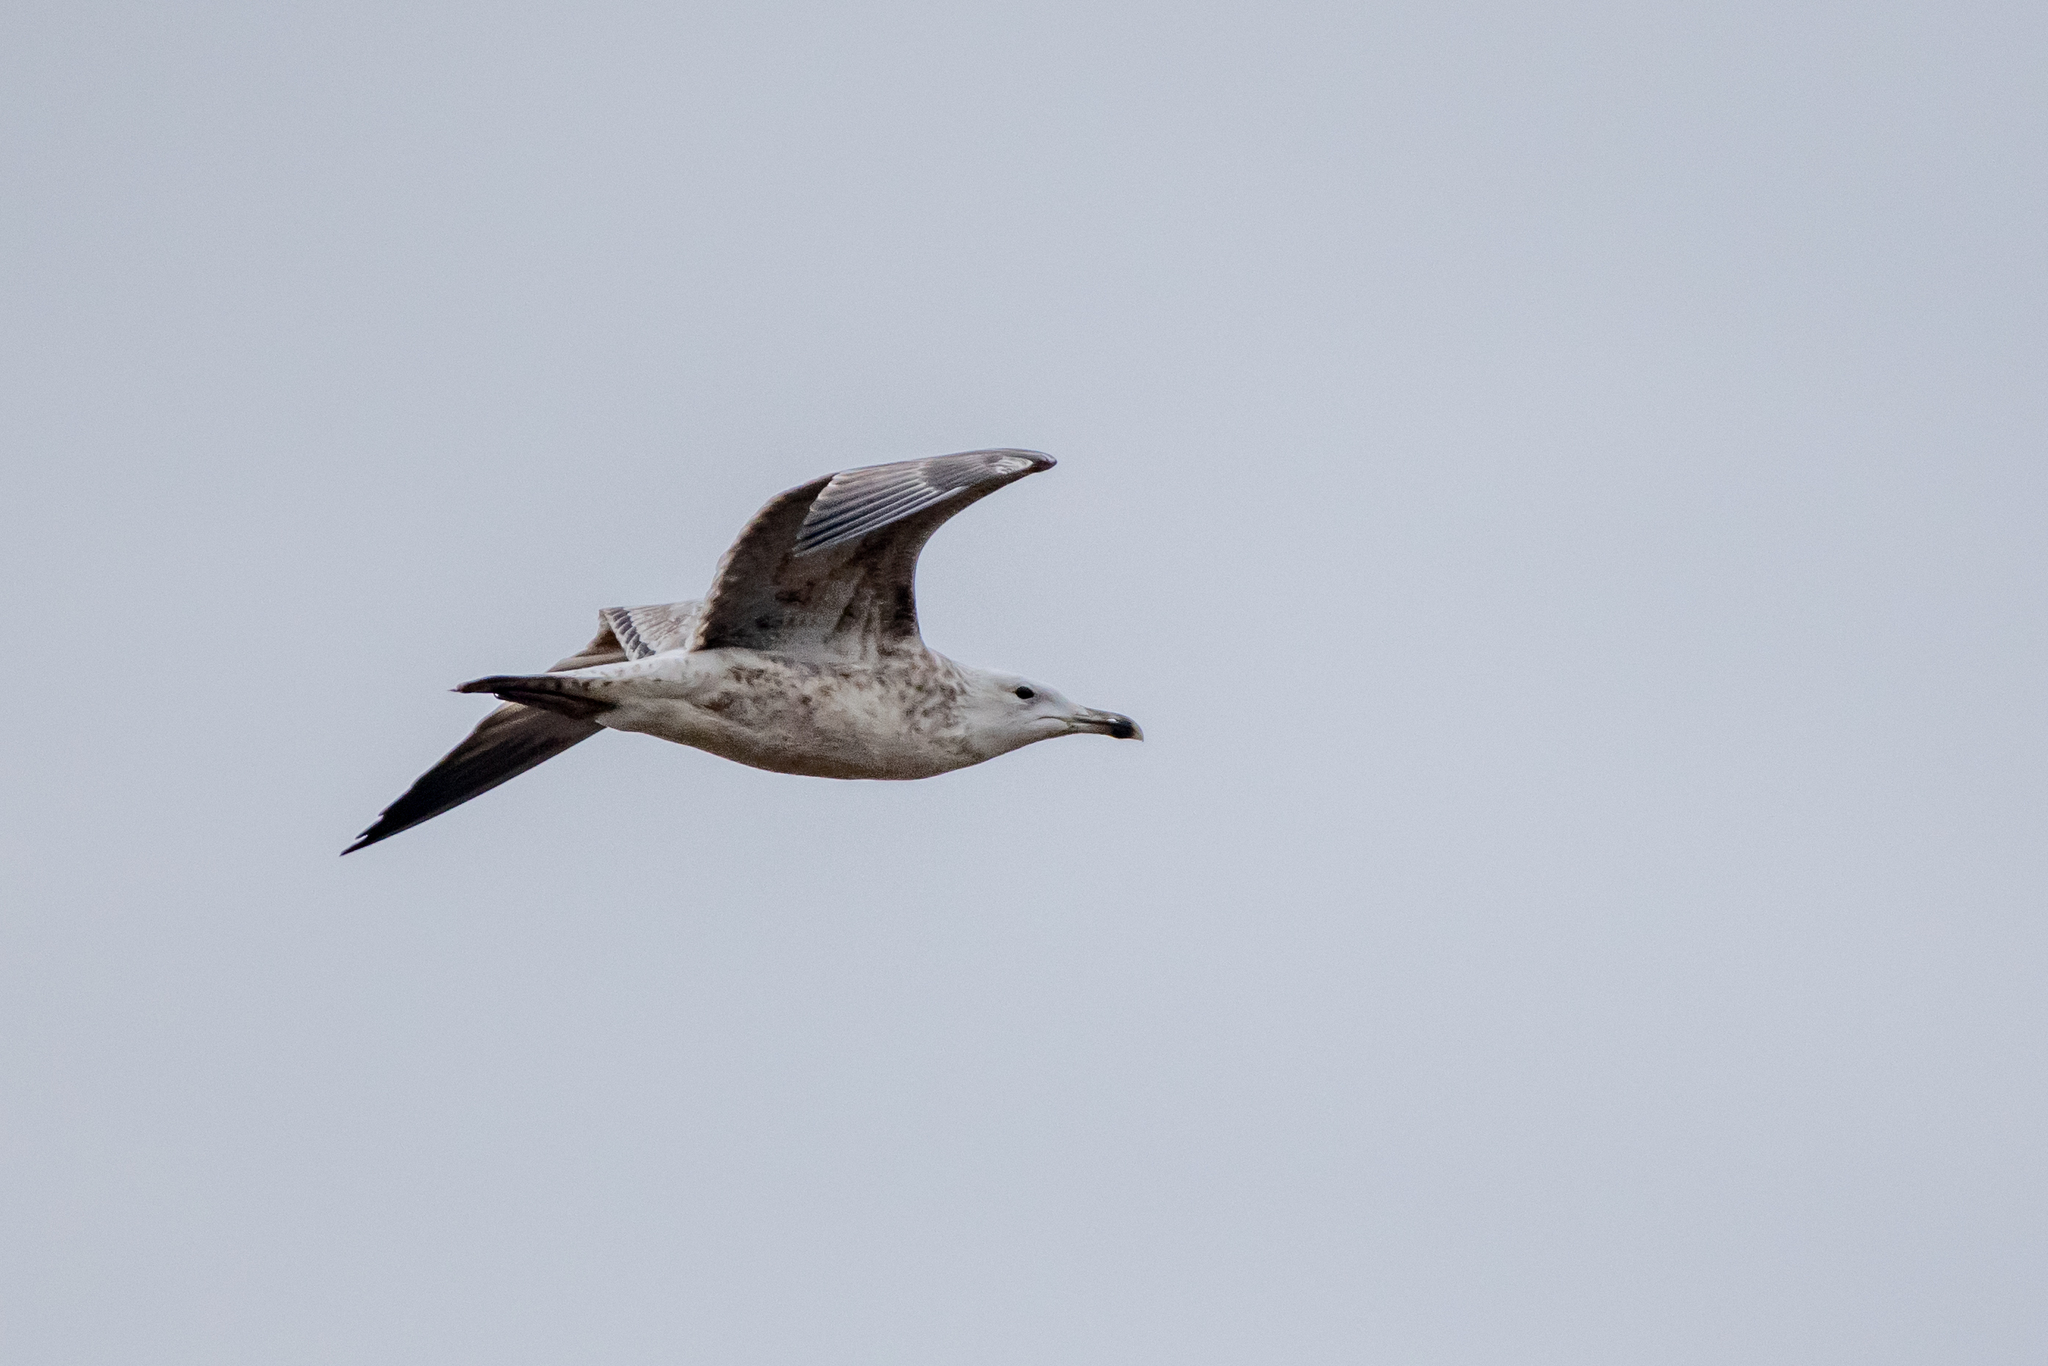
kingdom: Animalia
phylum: Chordata
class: Aves
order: Charadriiformes
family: Laridae
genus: Larus
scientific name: Larus cachinnans
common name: Caspian gull
